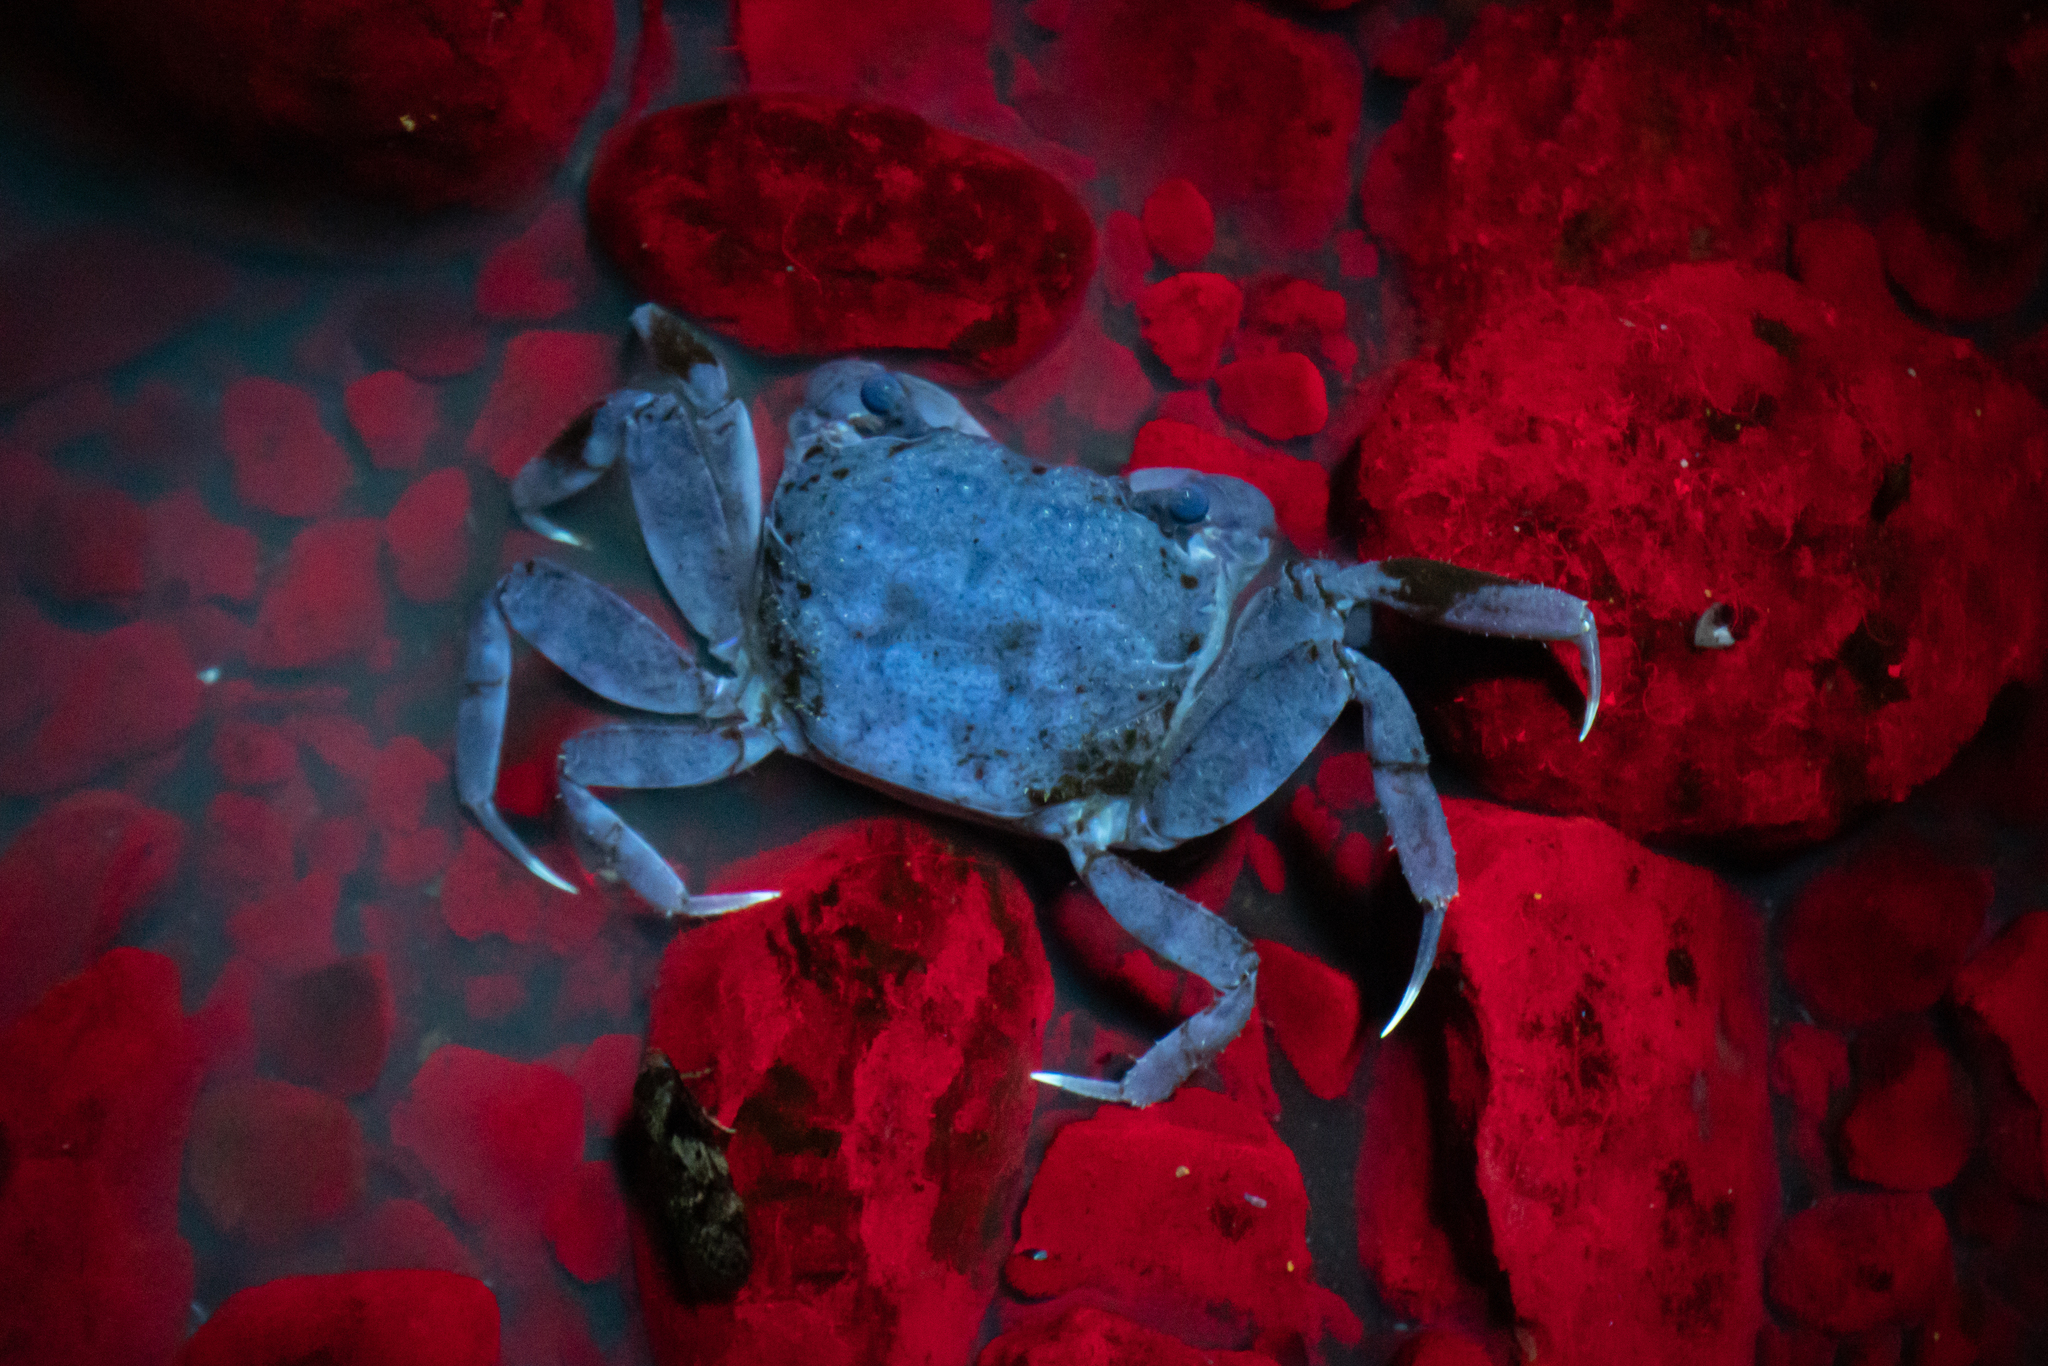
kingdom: Animalia
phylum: Arthropoda
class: Malacostraca
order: Decapoda
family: Varunidae
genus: Austrohelice
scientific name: Austrohelice crassa
